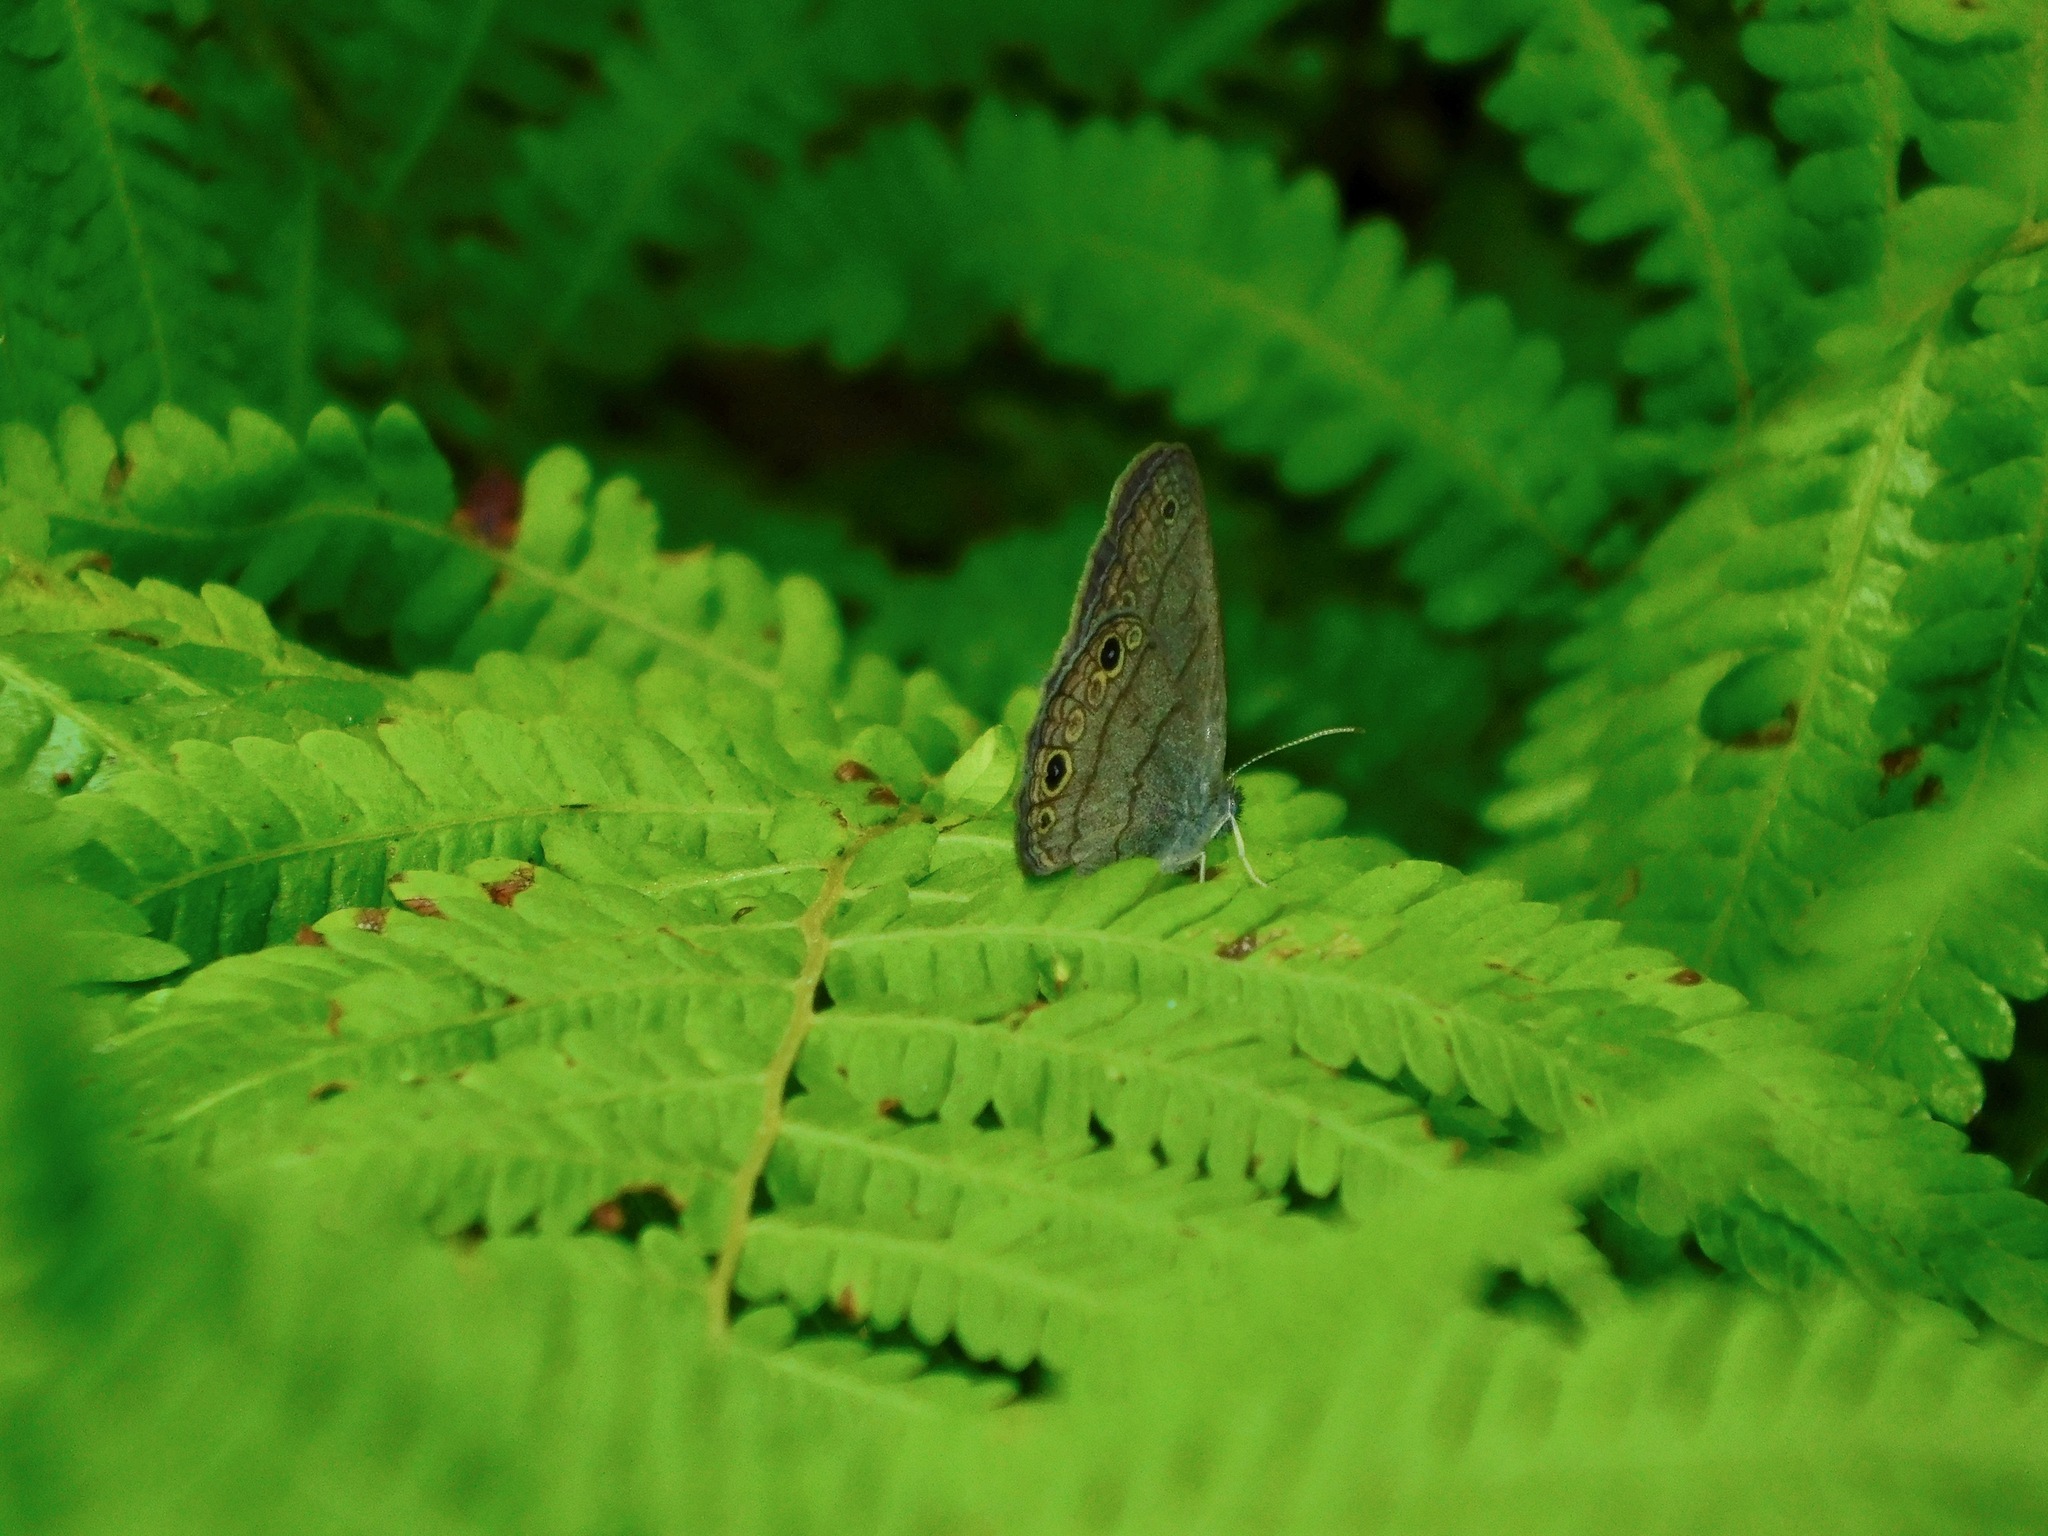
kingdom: Animalia
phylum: Arthropoda
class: Insecta
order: Lepidoptera
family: Nymphalidae
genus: Hermeuptychia
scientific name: Hermeuptychia hermes
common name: Hermes satyr
